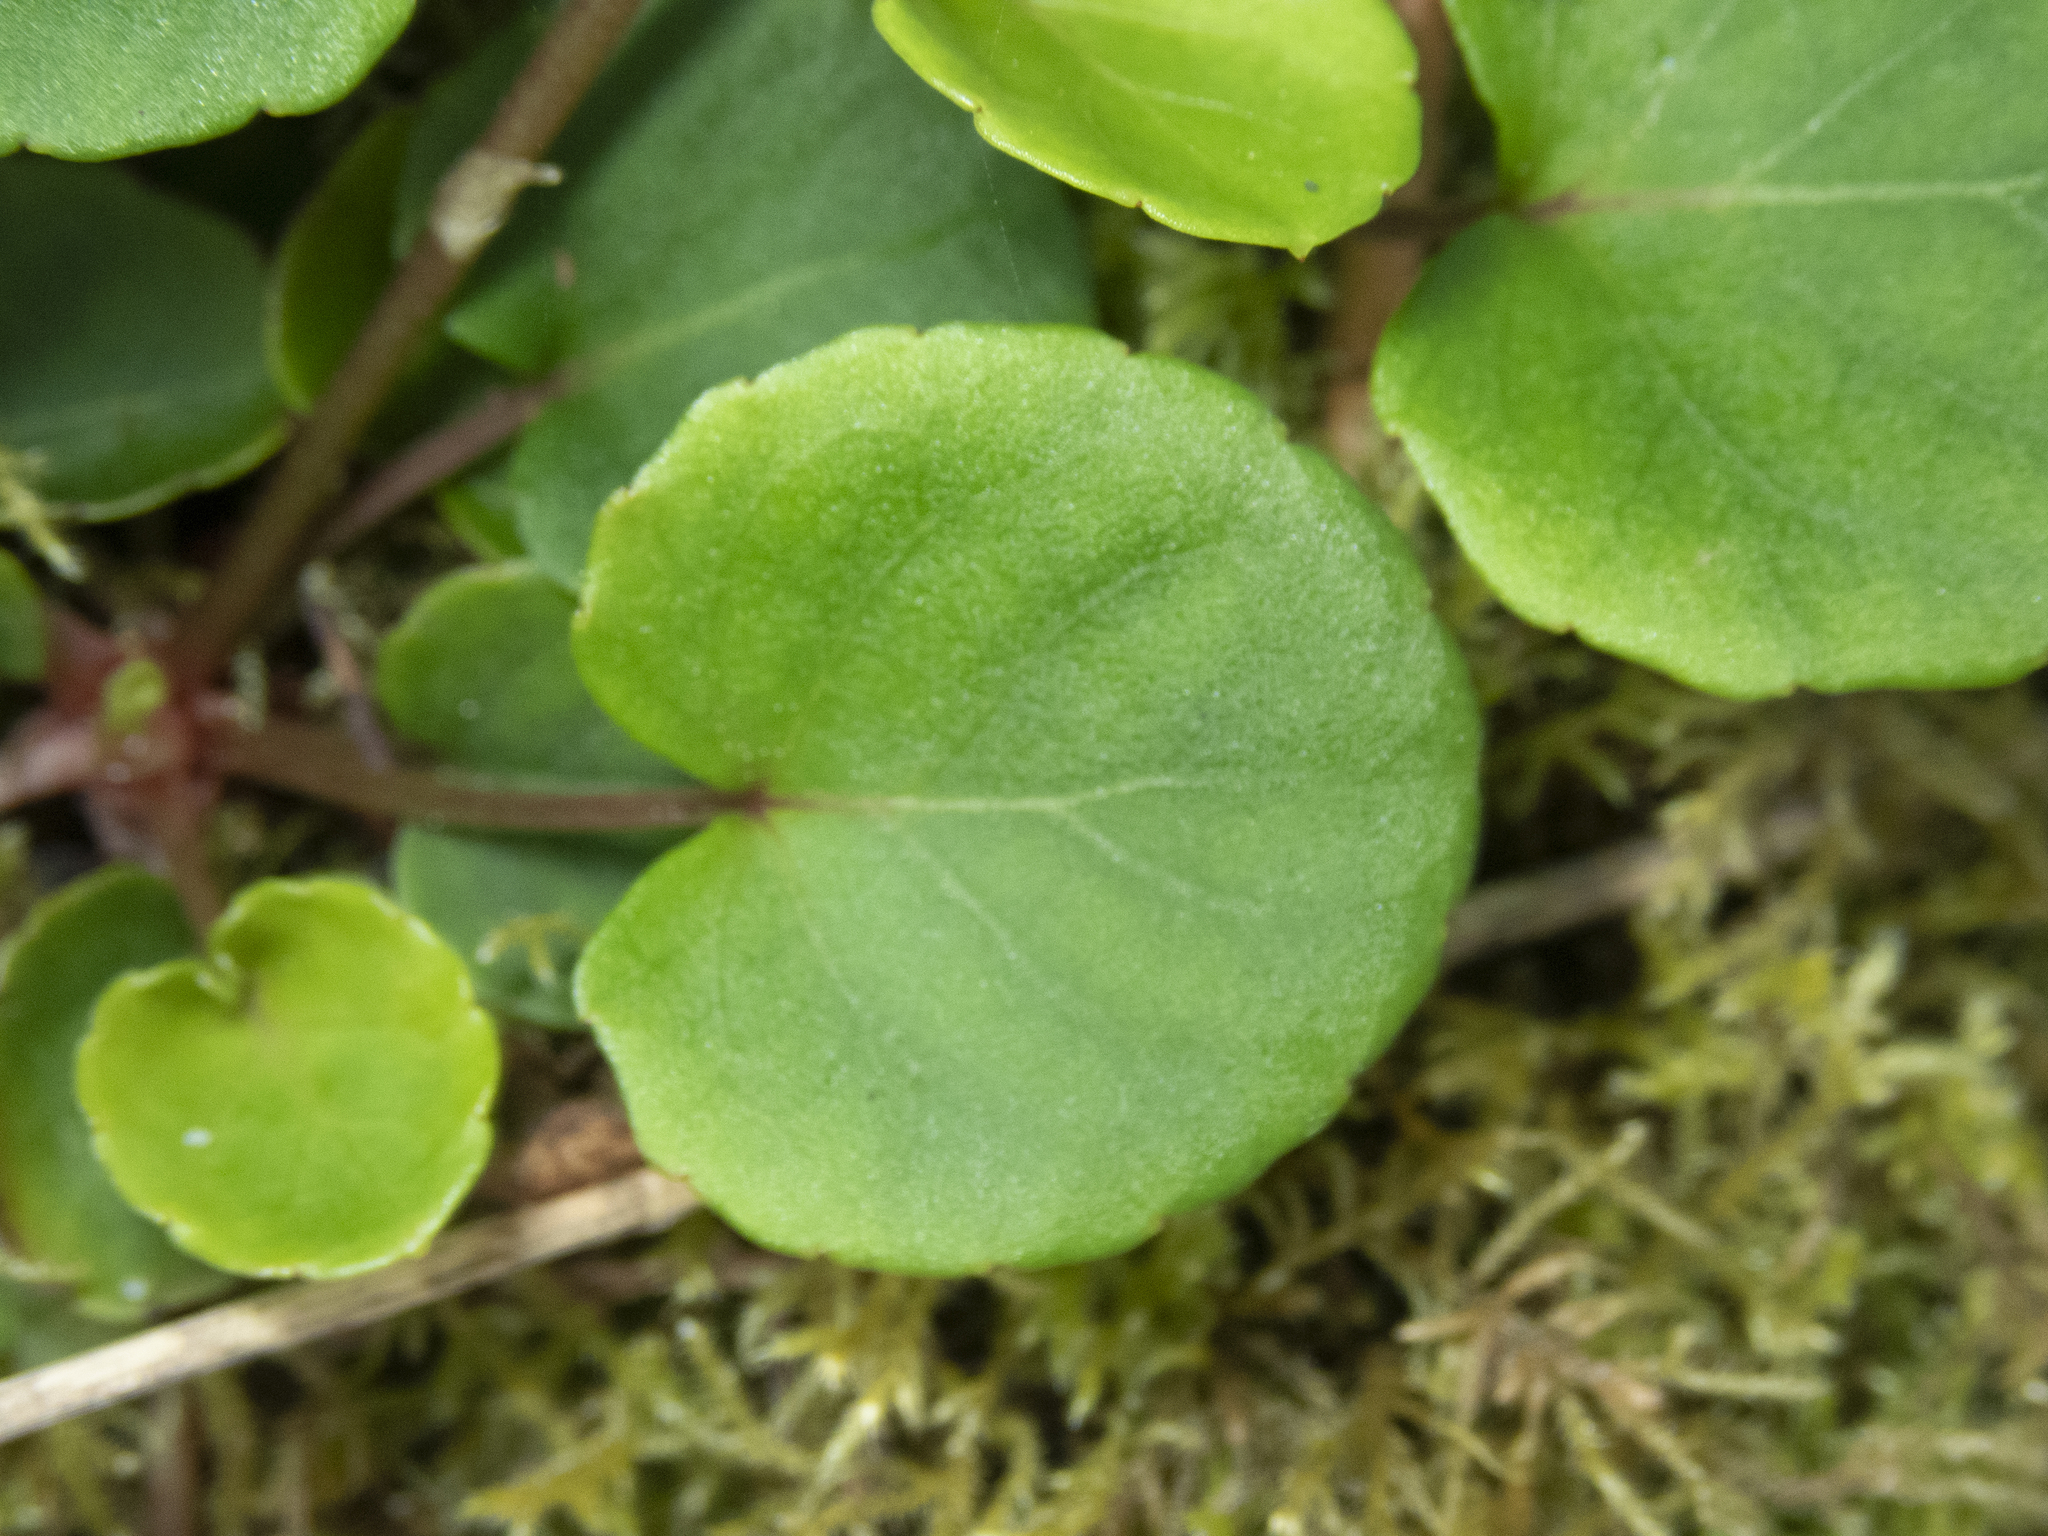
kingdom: Plantae
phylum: Tracheophyta
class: Magnoliopsida
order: Malpighiales
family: Violaceae
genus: Viola
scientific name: Viola sempervirens
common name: Evergreen violet
